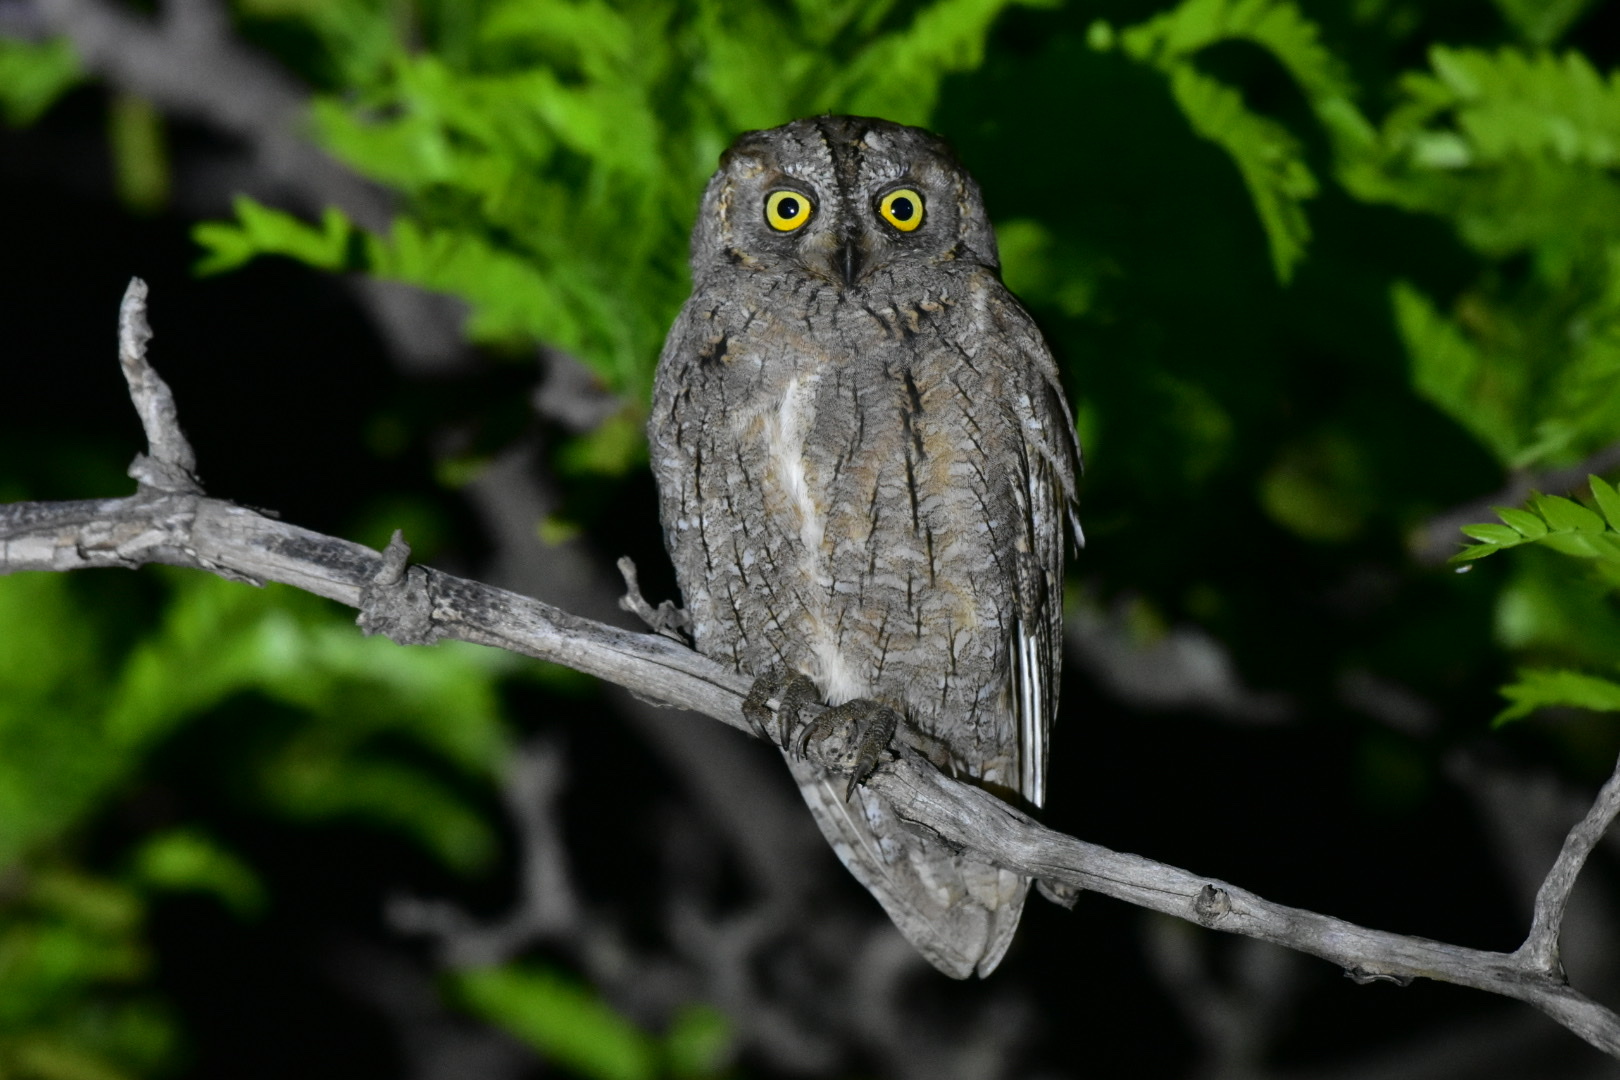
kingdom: Animalia
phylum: Chordata
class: Aves
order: Strigiformes
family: Strigidae
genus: Otus
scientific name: Otus scops
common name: Eurasian scops owl
